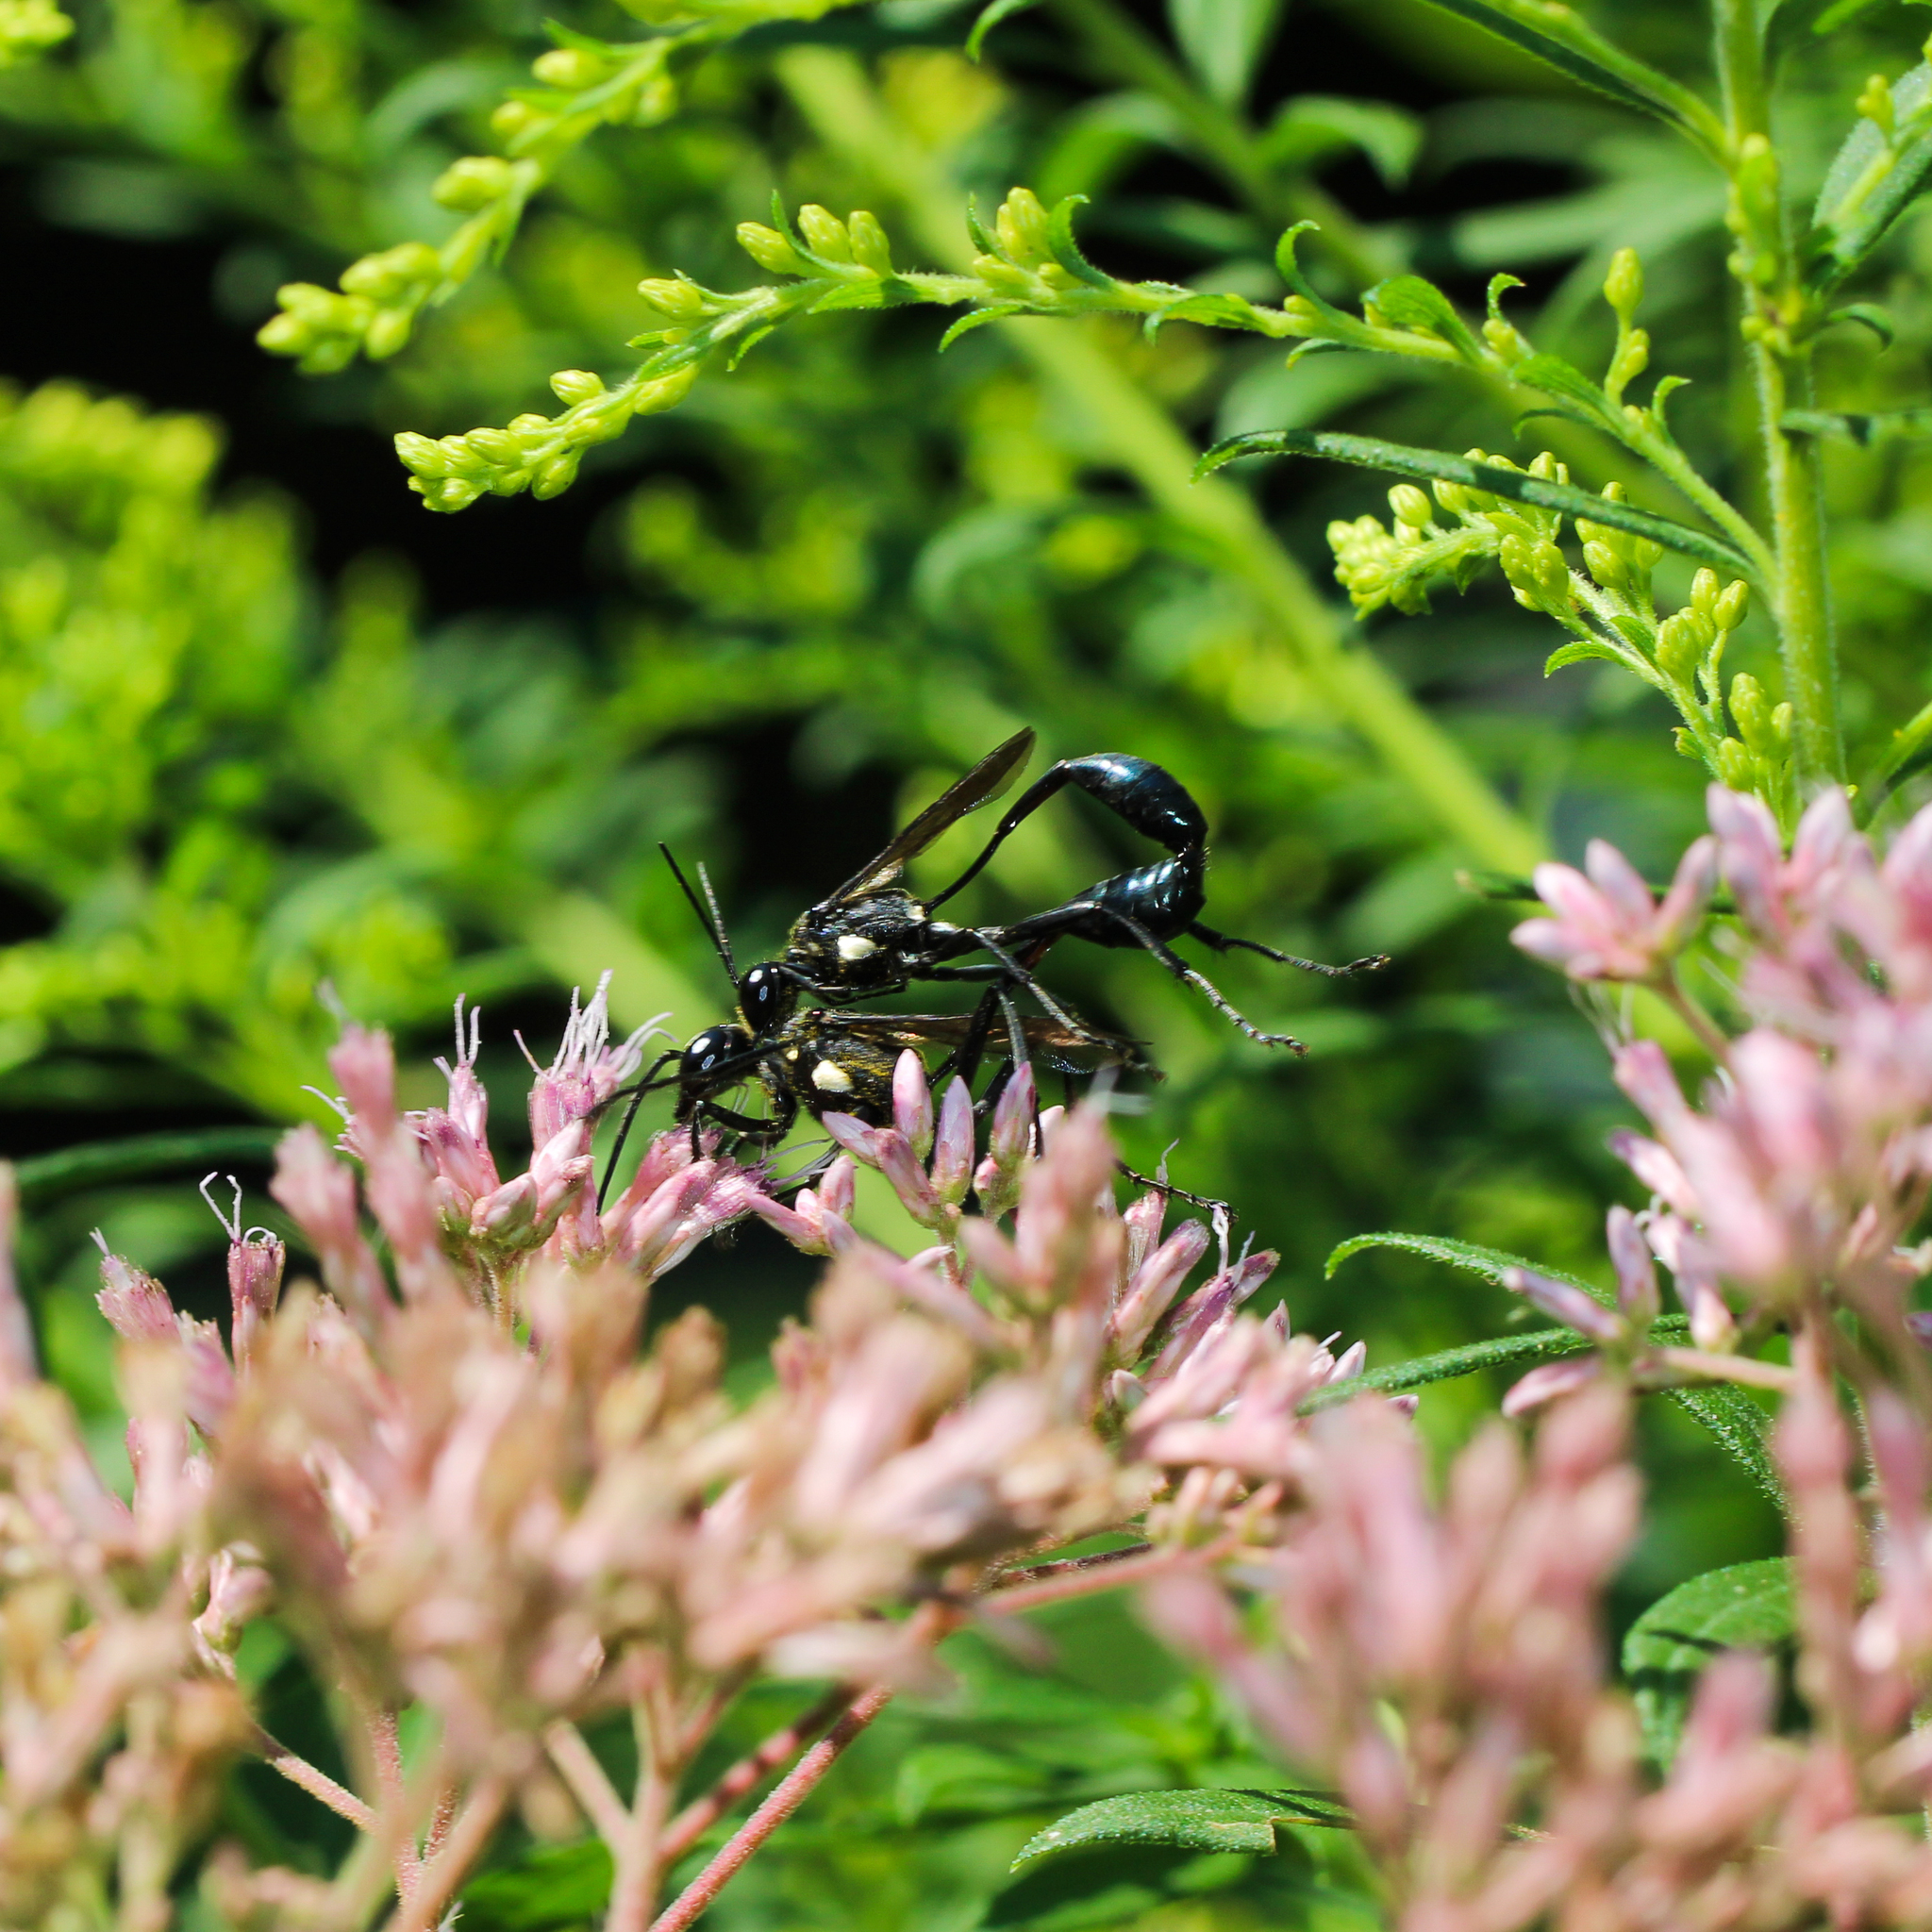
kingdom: Animalia
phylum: Arthropoda
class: Insecta
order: Hymenoptera
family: Sphecidae
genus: Eremnophila
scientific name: Eremnophila aureonotata
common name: Gold-marked thread-waisted wasp
